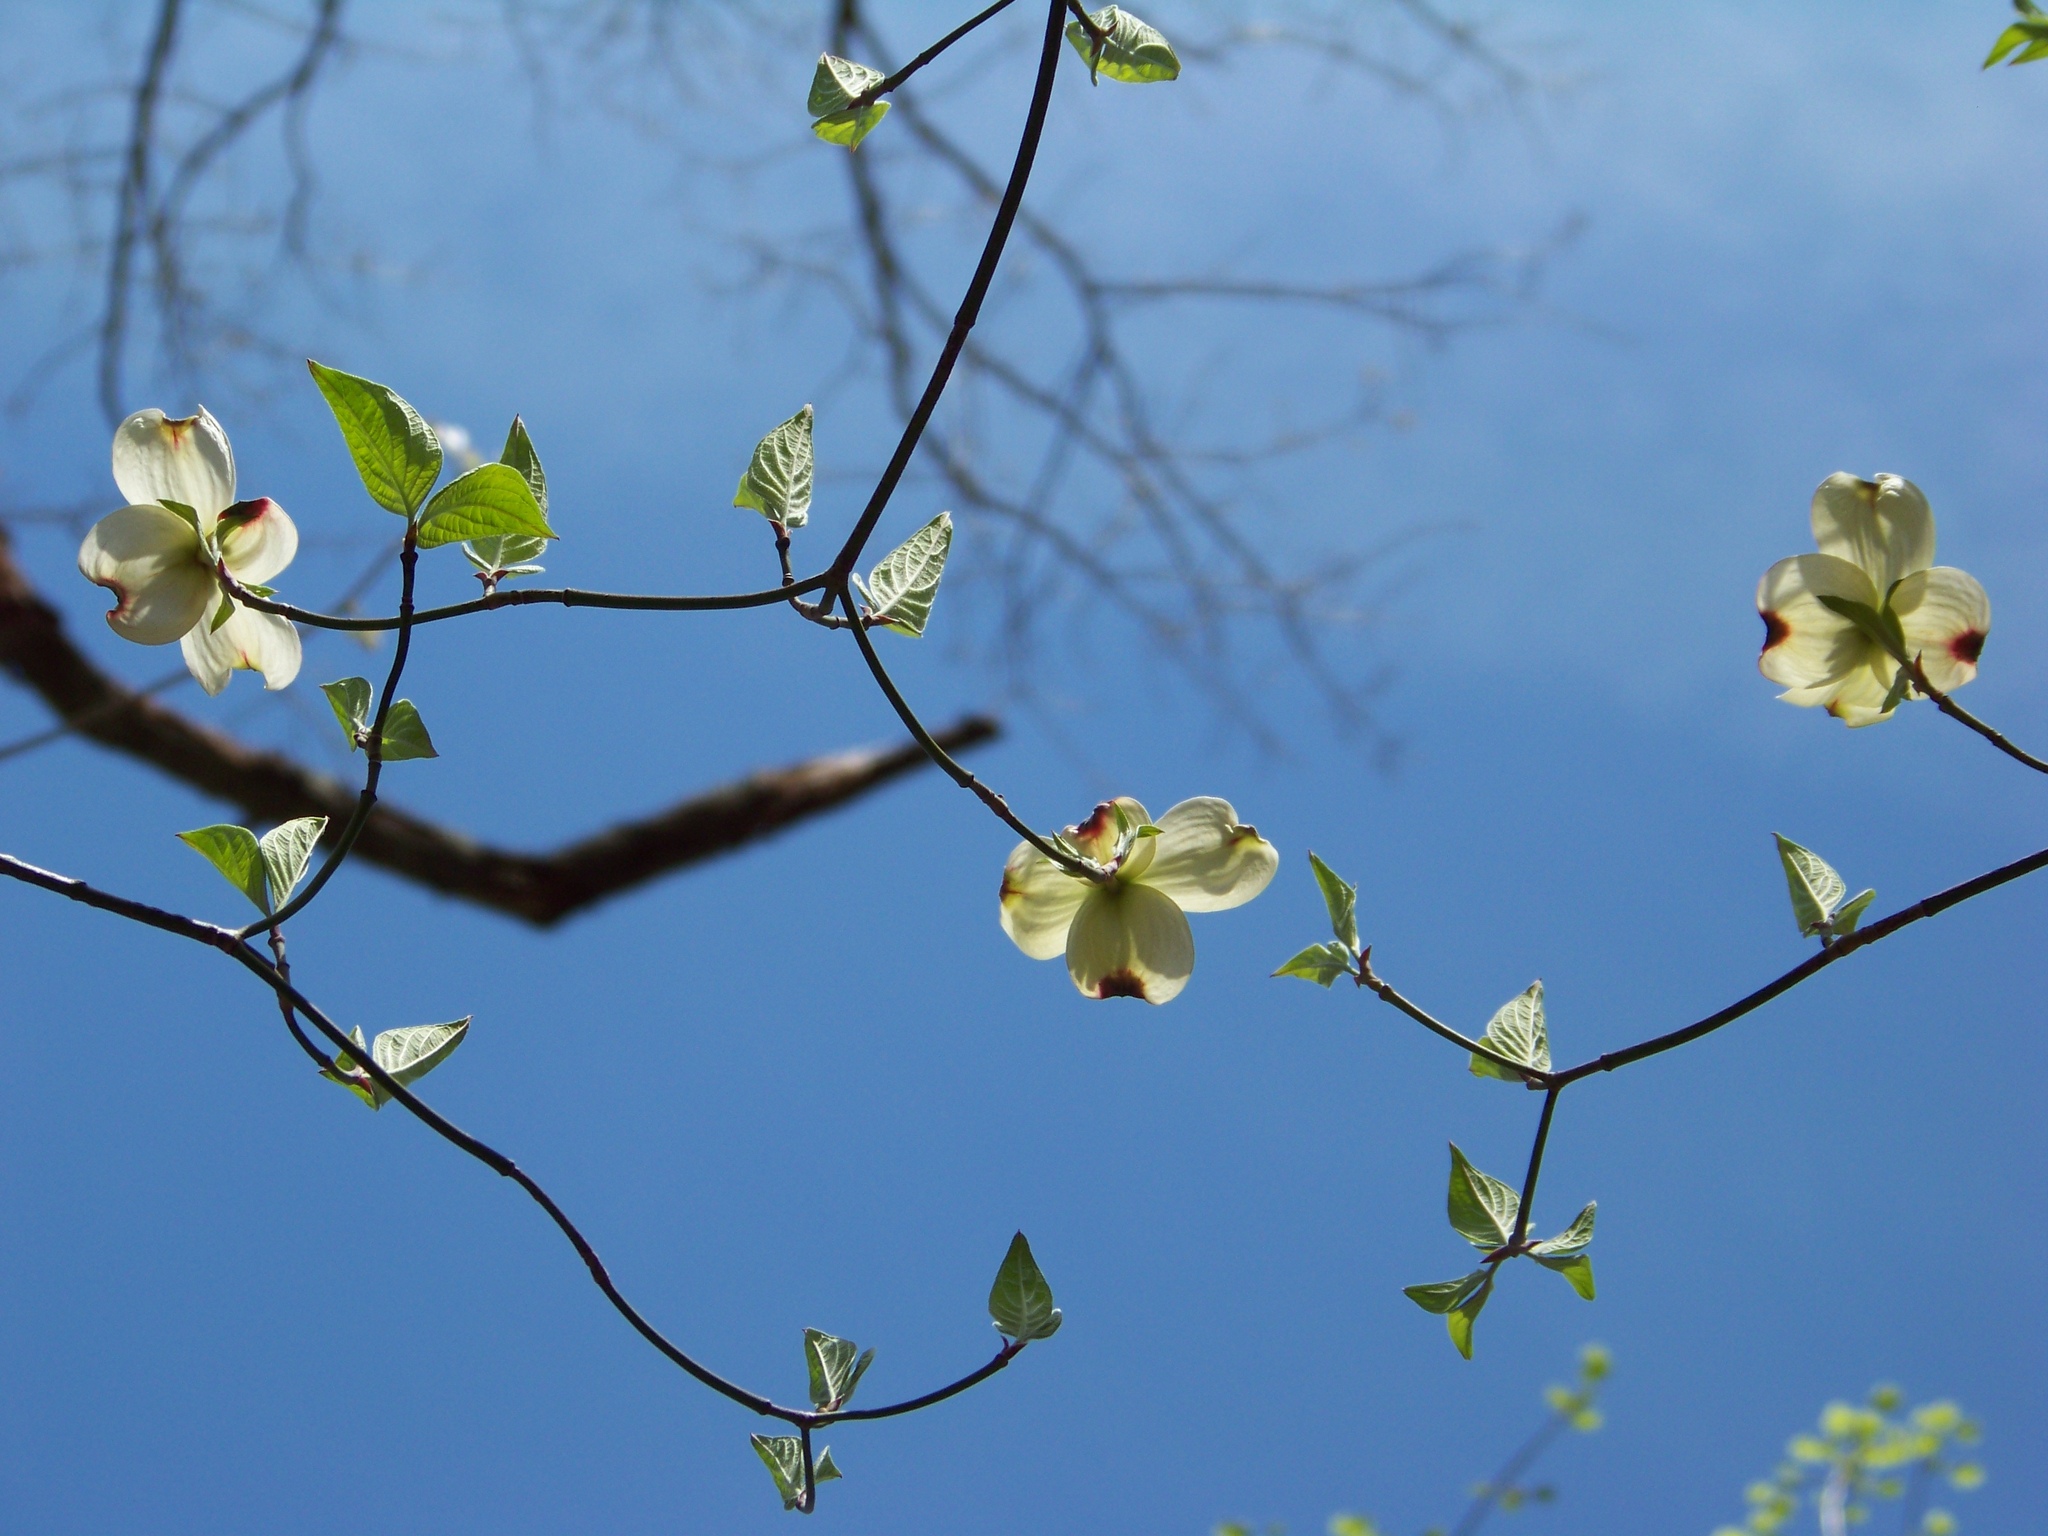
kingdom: Plantae
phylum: Tracheophyta
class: Magnoliopsida
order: Cornales
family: Cornaceae
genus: Cornus
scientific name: Cornus florida
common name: Flowering dogwood
